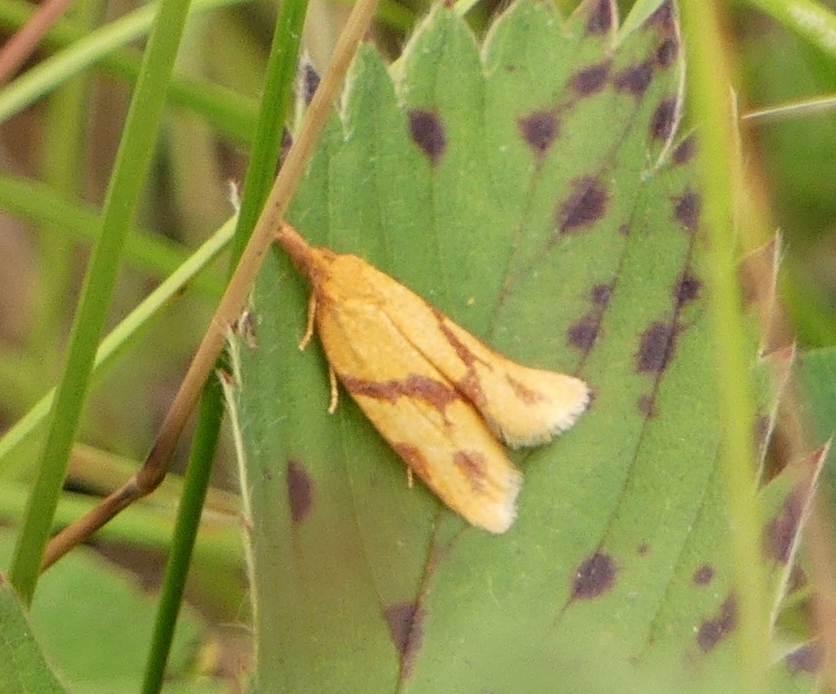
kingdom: Animalia
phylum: Arthropoda
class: Insecta
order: Lepidoptera
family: Tortricidae
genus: Sparganothis
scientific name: Sparganothis unifasciana
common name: One-lined sparganothis moth
